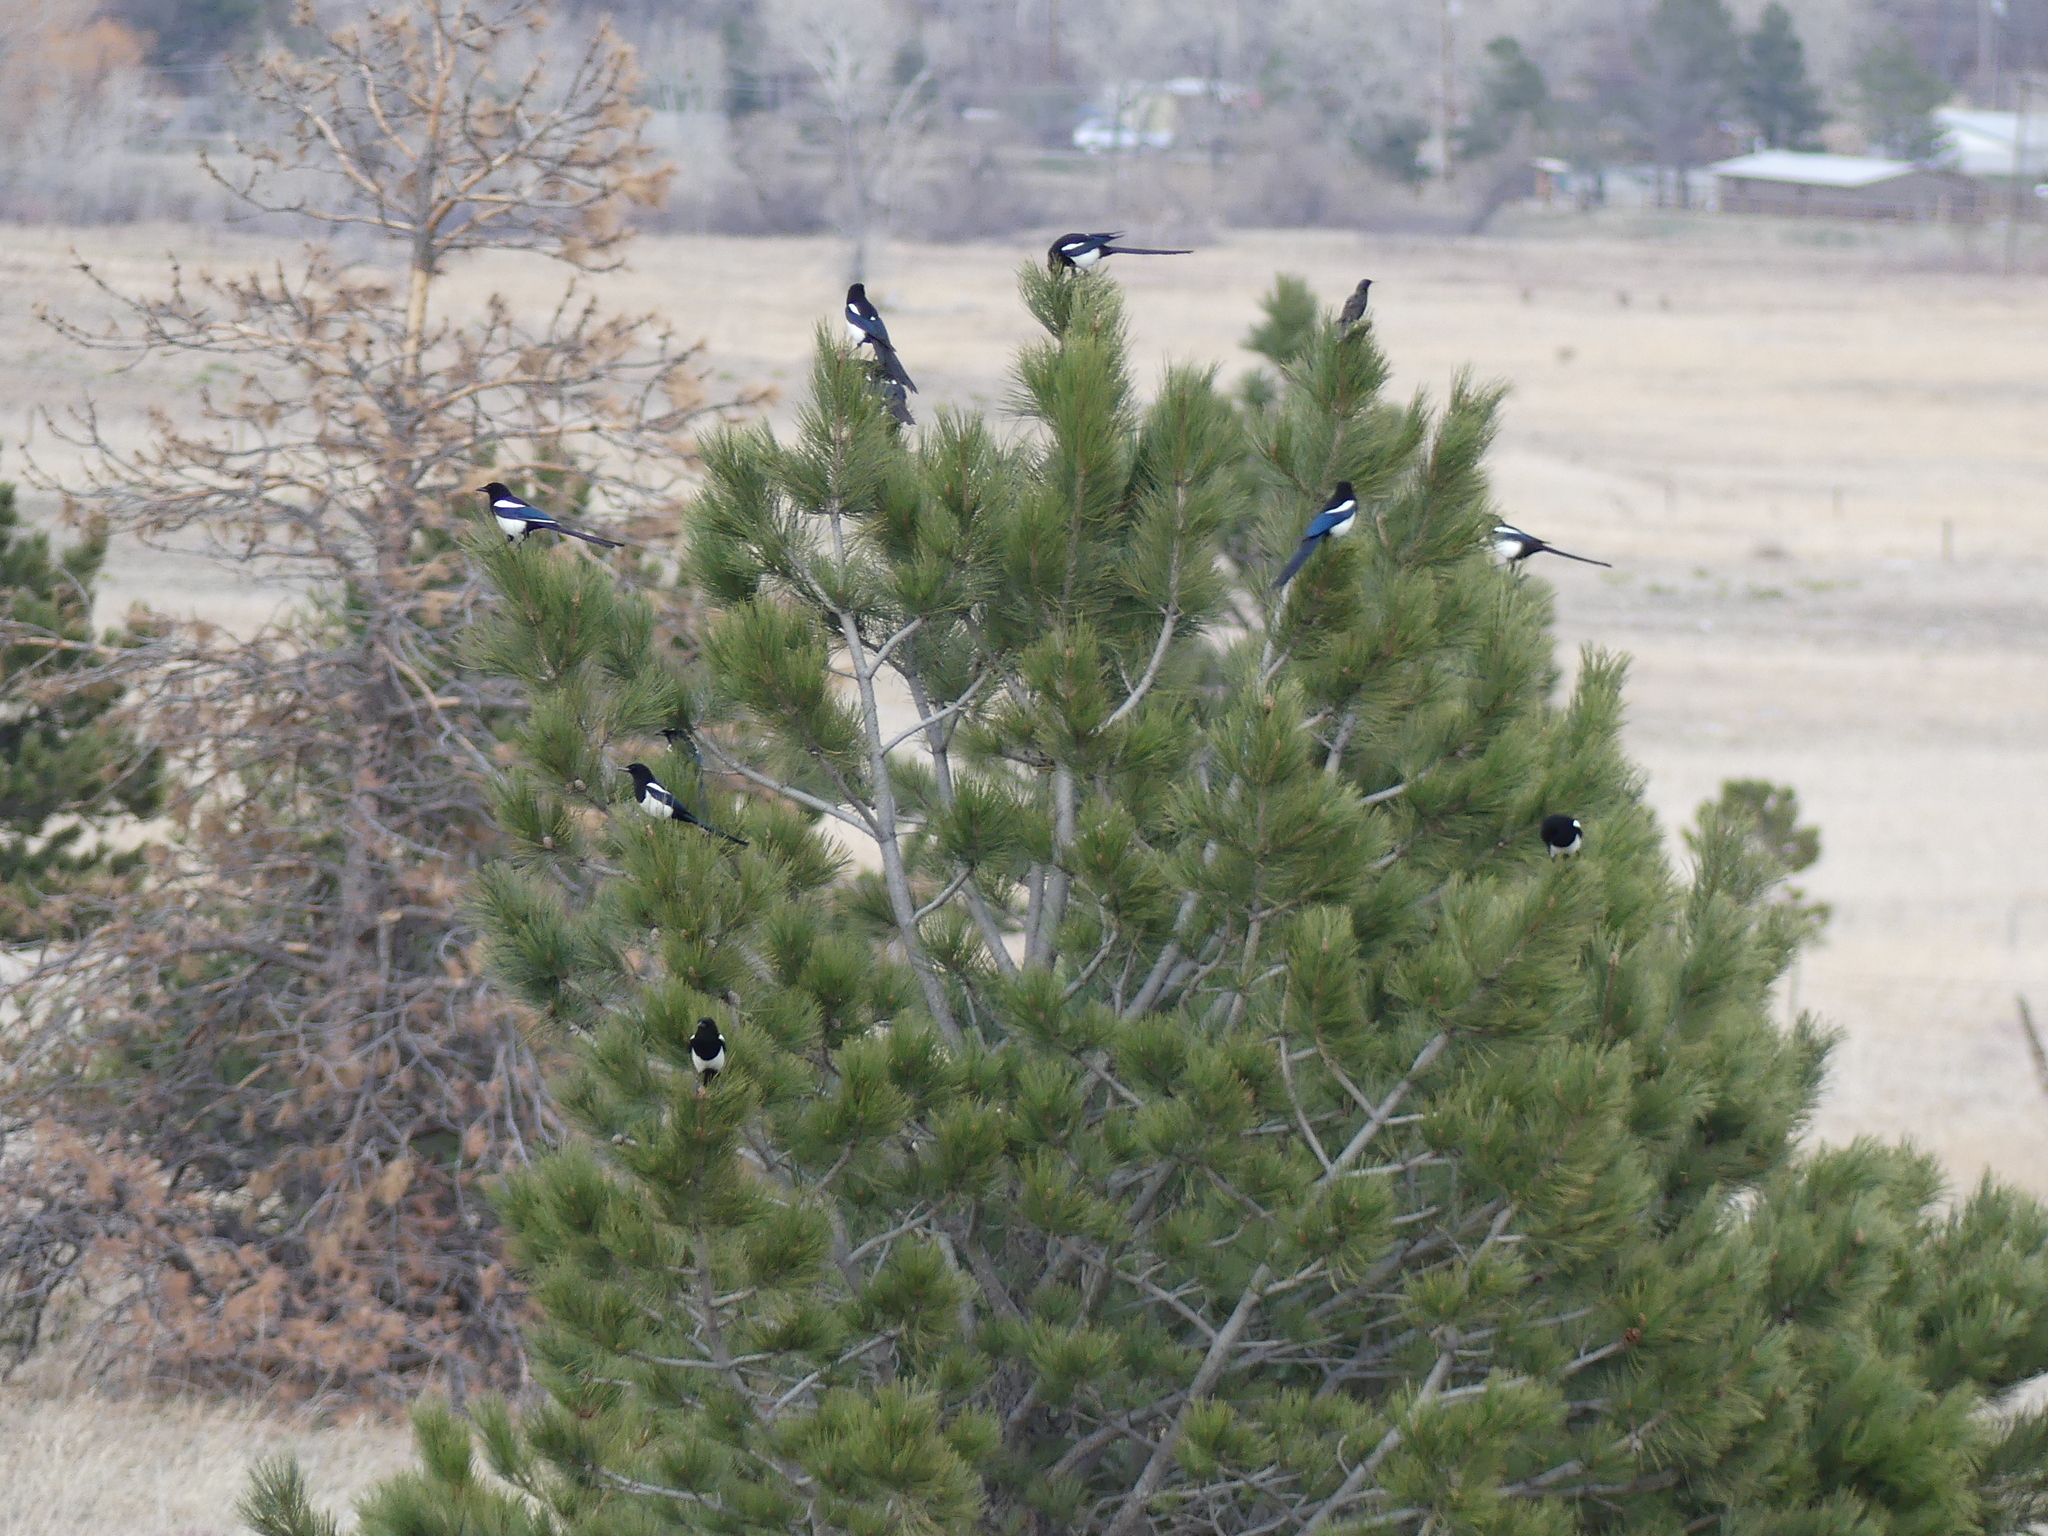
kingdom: Animalia
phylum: Chordata
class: Aves
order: Passeriformes
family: Corvidae
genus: Pica
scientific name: Pica hudsonia
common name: Black-billed magpie
